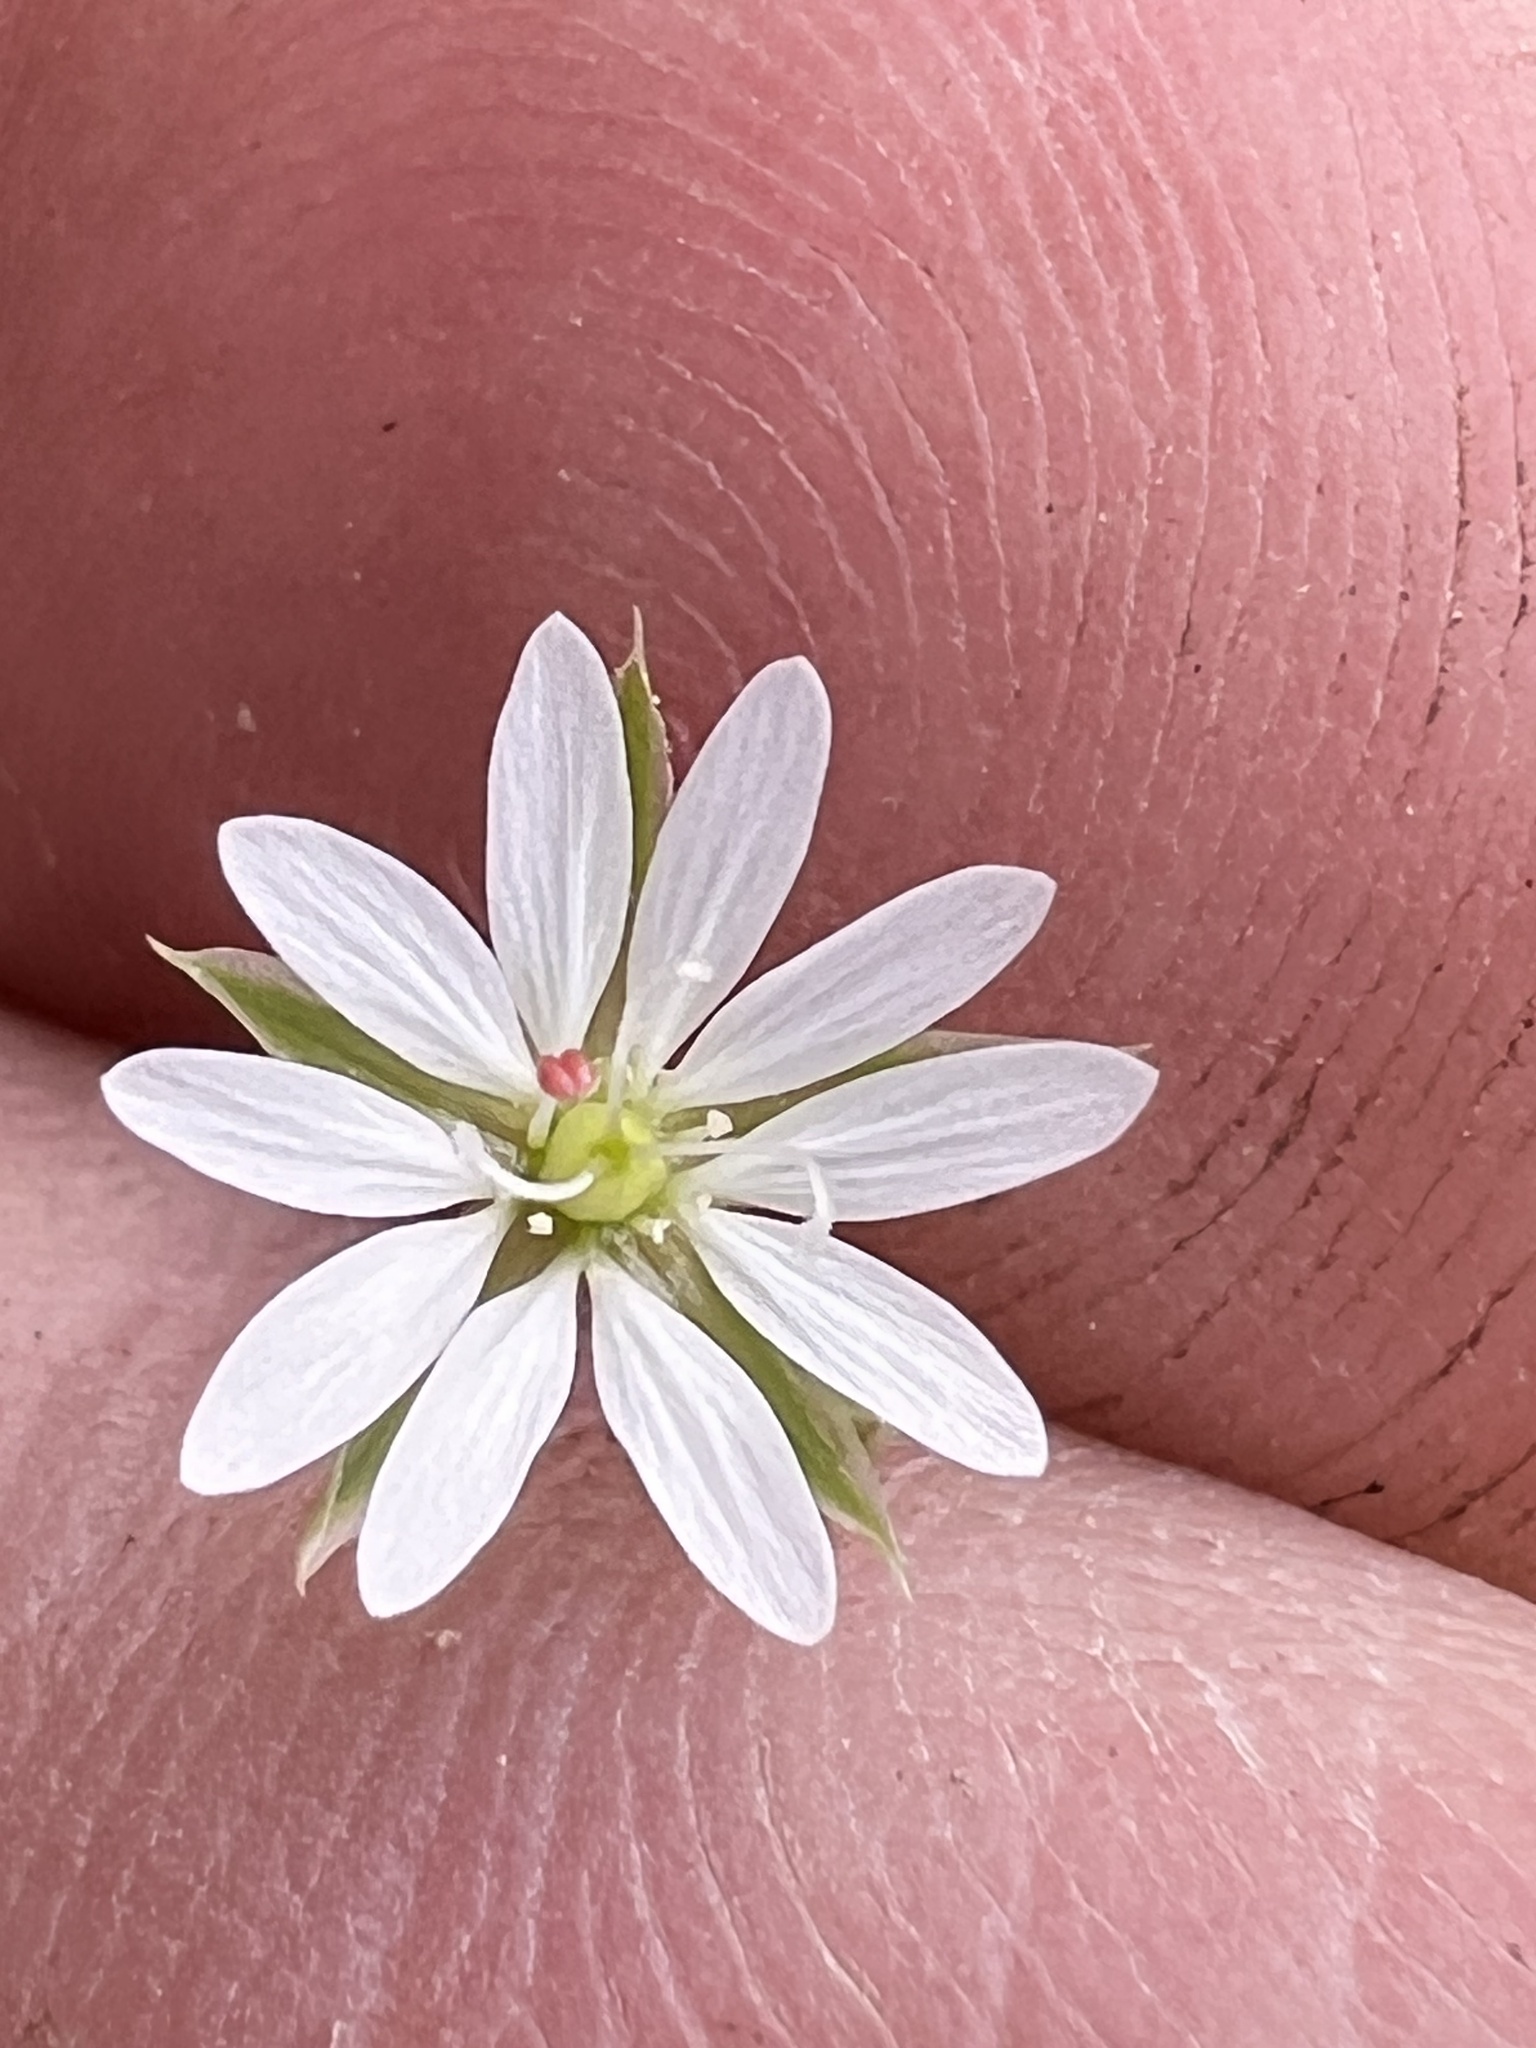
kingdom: Plantae
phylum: Tracheophyta
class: Magnoliopsida
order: Caryophyllales
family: Caryophyllaceae
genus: Stellaria
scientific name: Stellaria graminea
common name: Grass-like starwort
